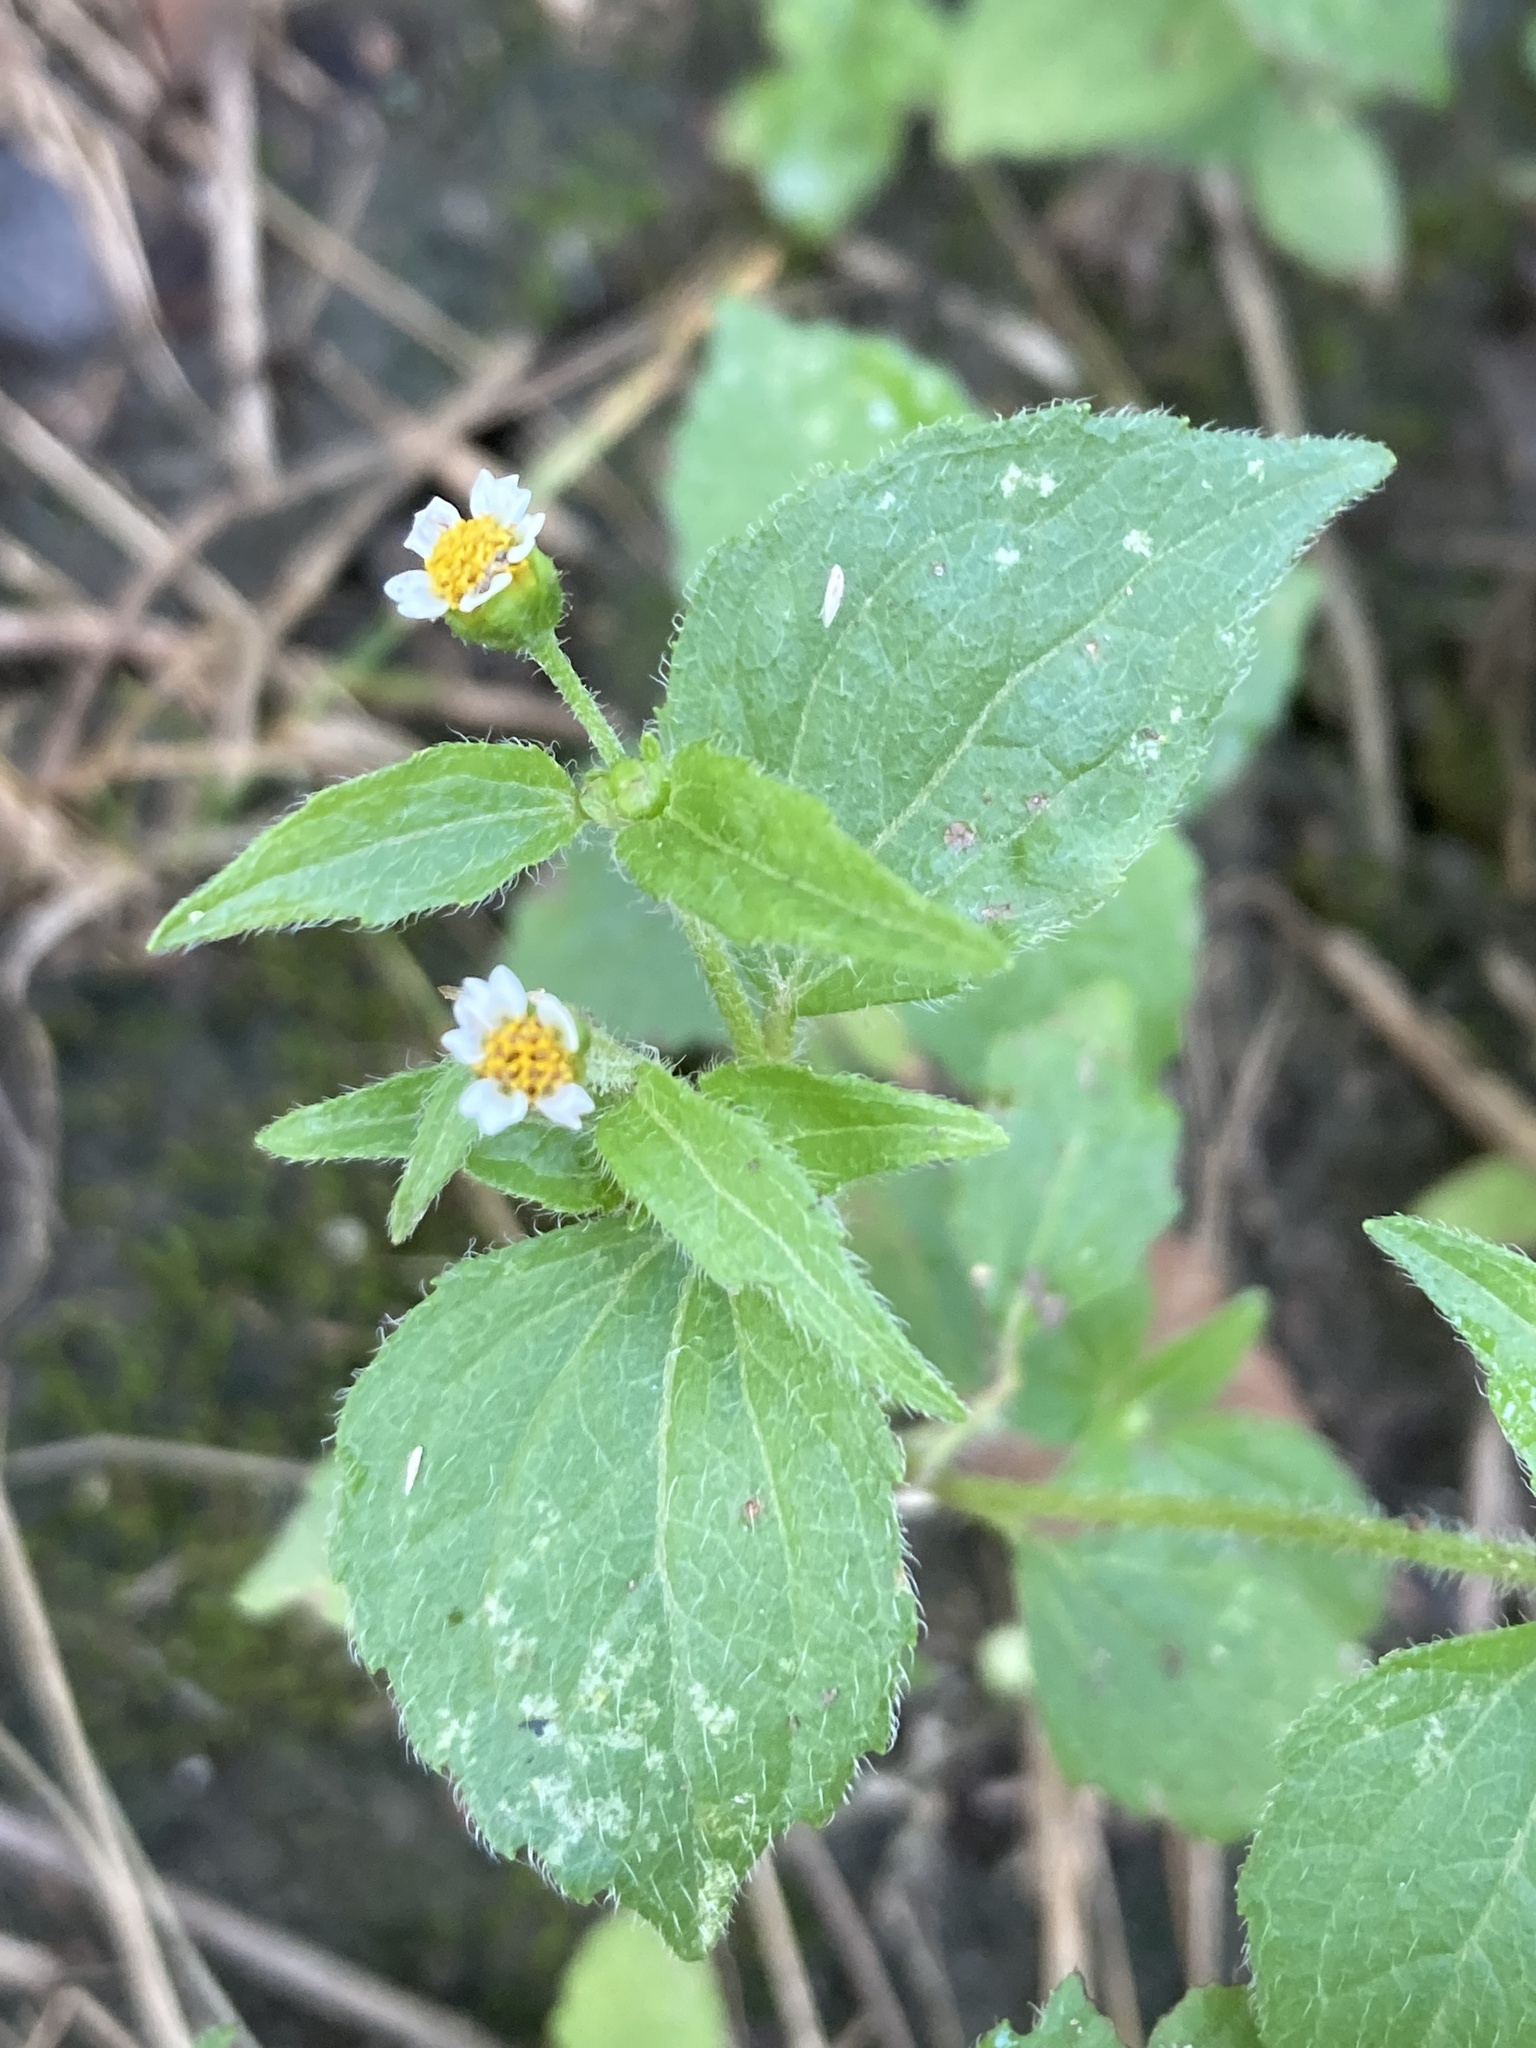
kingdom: Plantae
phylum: Tracheophyta
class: Magnoliopsida
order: Asterales
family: Asteraceae
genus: Galinsoga
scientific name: Galinsoga quadriradiata
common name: Shaggy soldier
